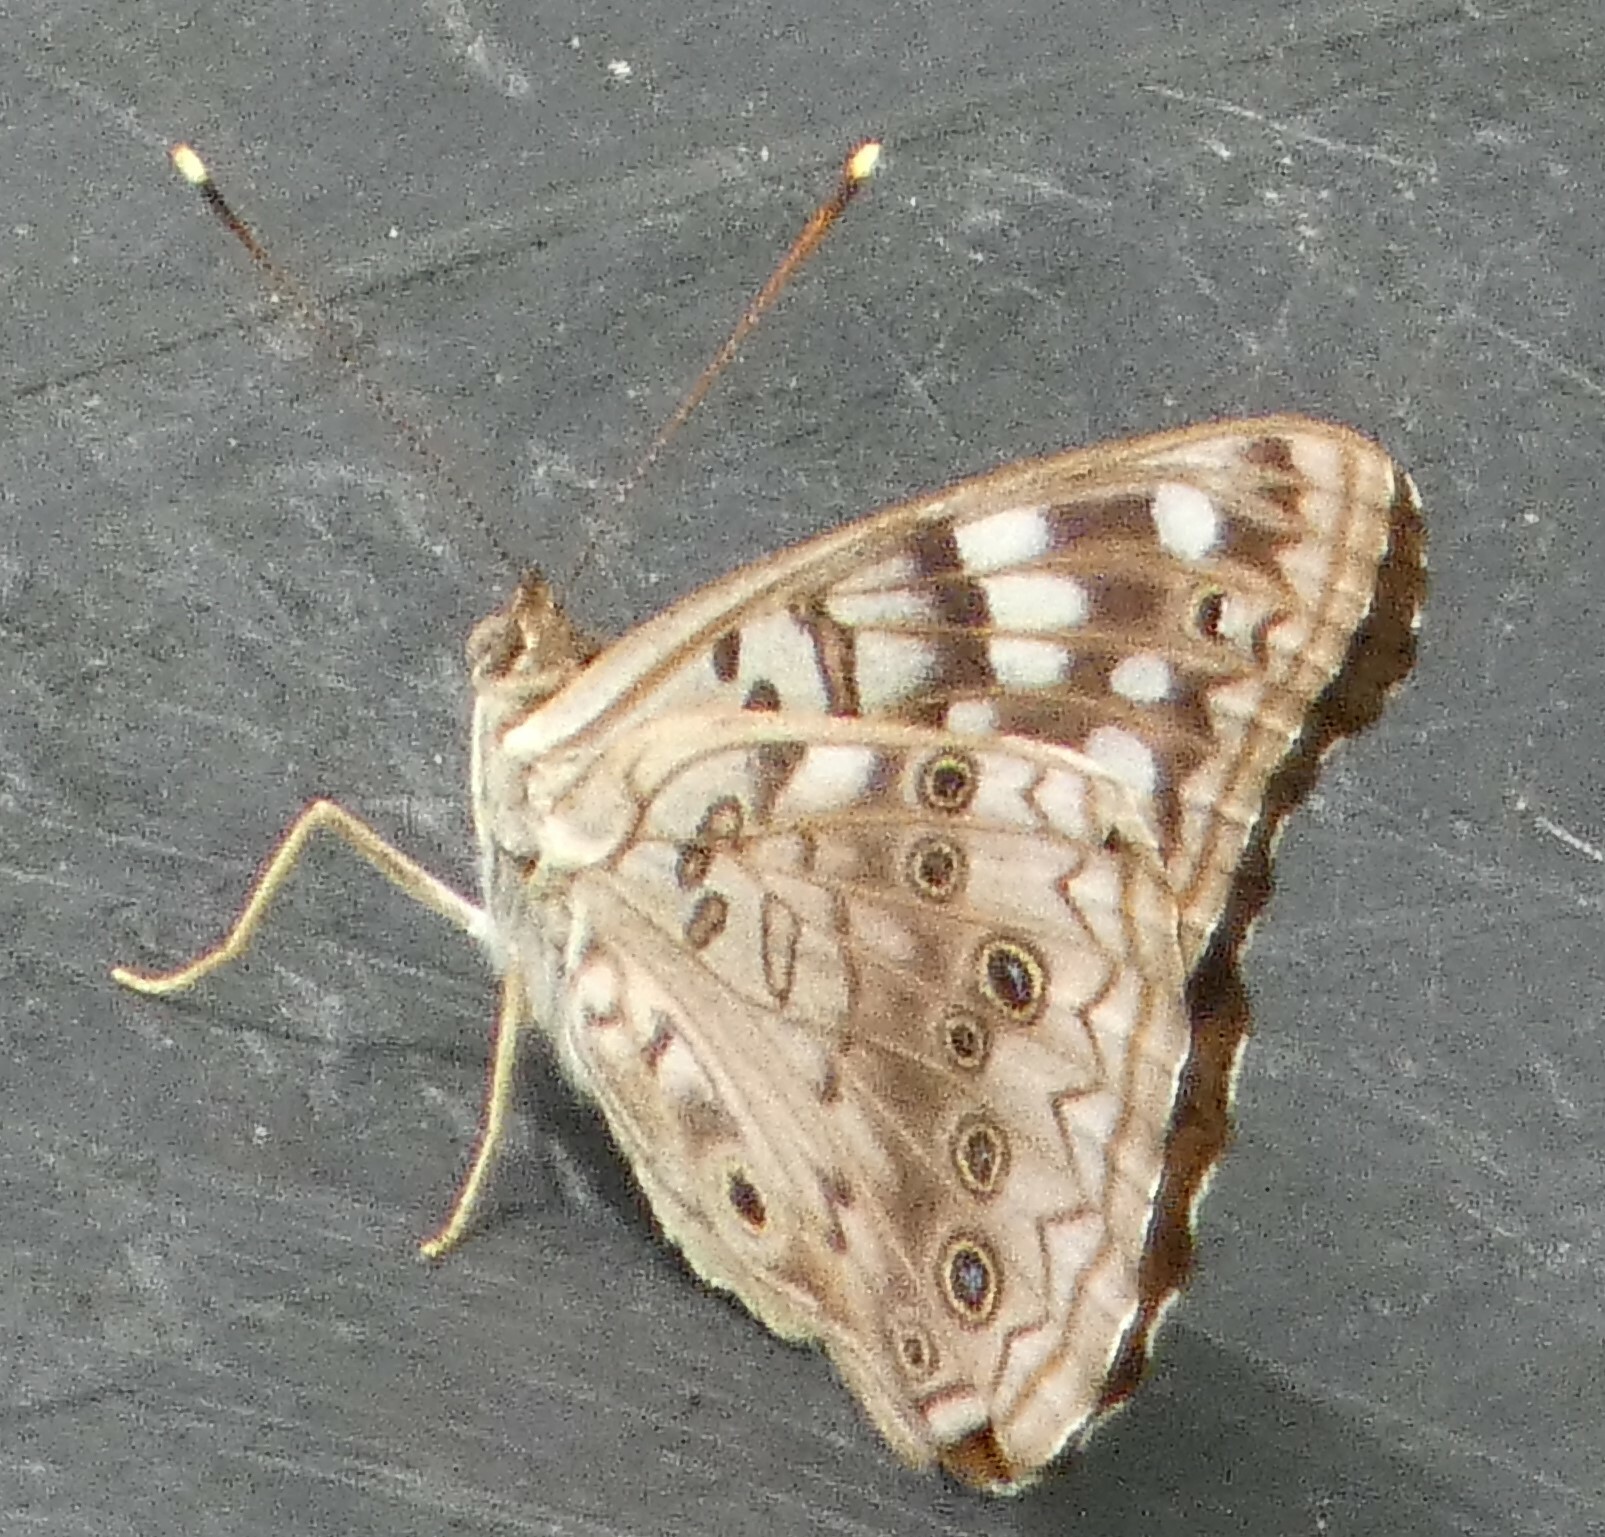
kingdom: Animalia
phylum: Arthropoda
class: Insecta
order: Lepidoptera
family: Nymphalidae
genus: Asterocampa
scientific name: Asterocampa celtis
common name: Hackberry emperor
